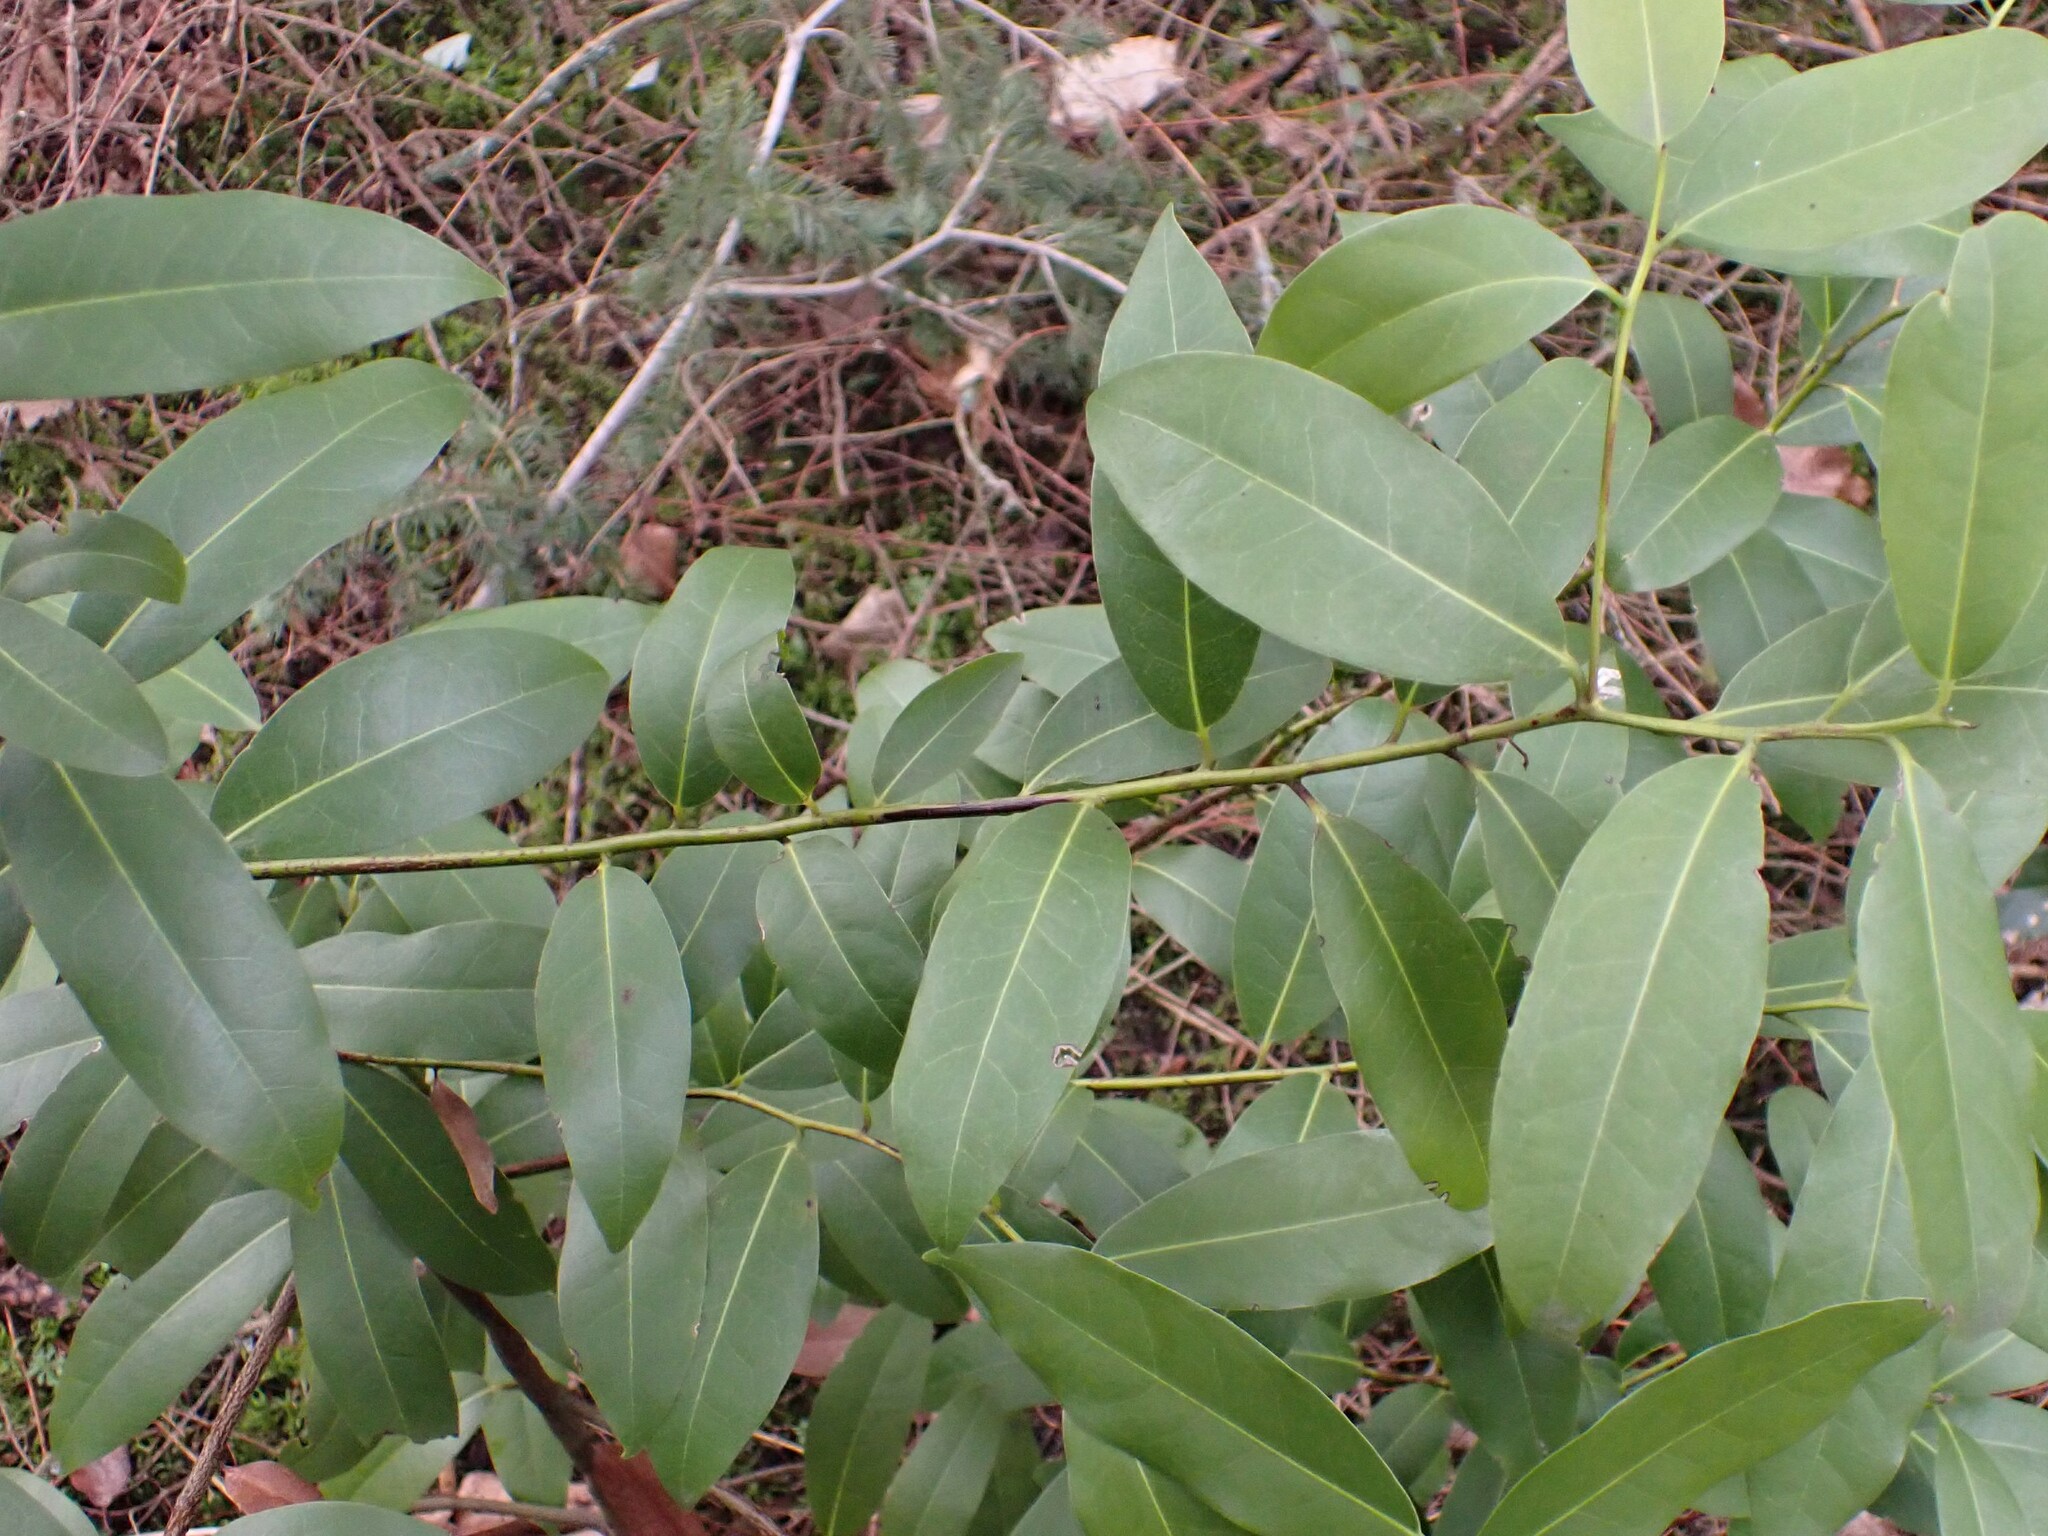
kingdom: Plantae
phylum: Tracheophyta
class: Magnoliopsida
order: Laurales
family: Lauraceae
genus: Umbellularia
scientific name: Umbellularia californica
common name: California bay
